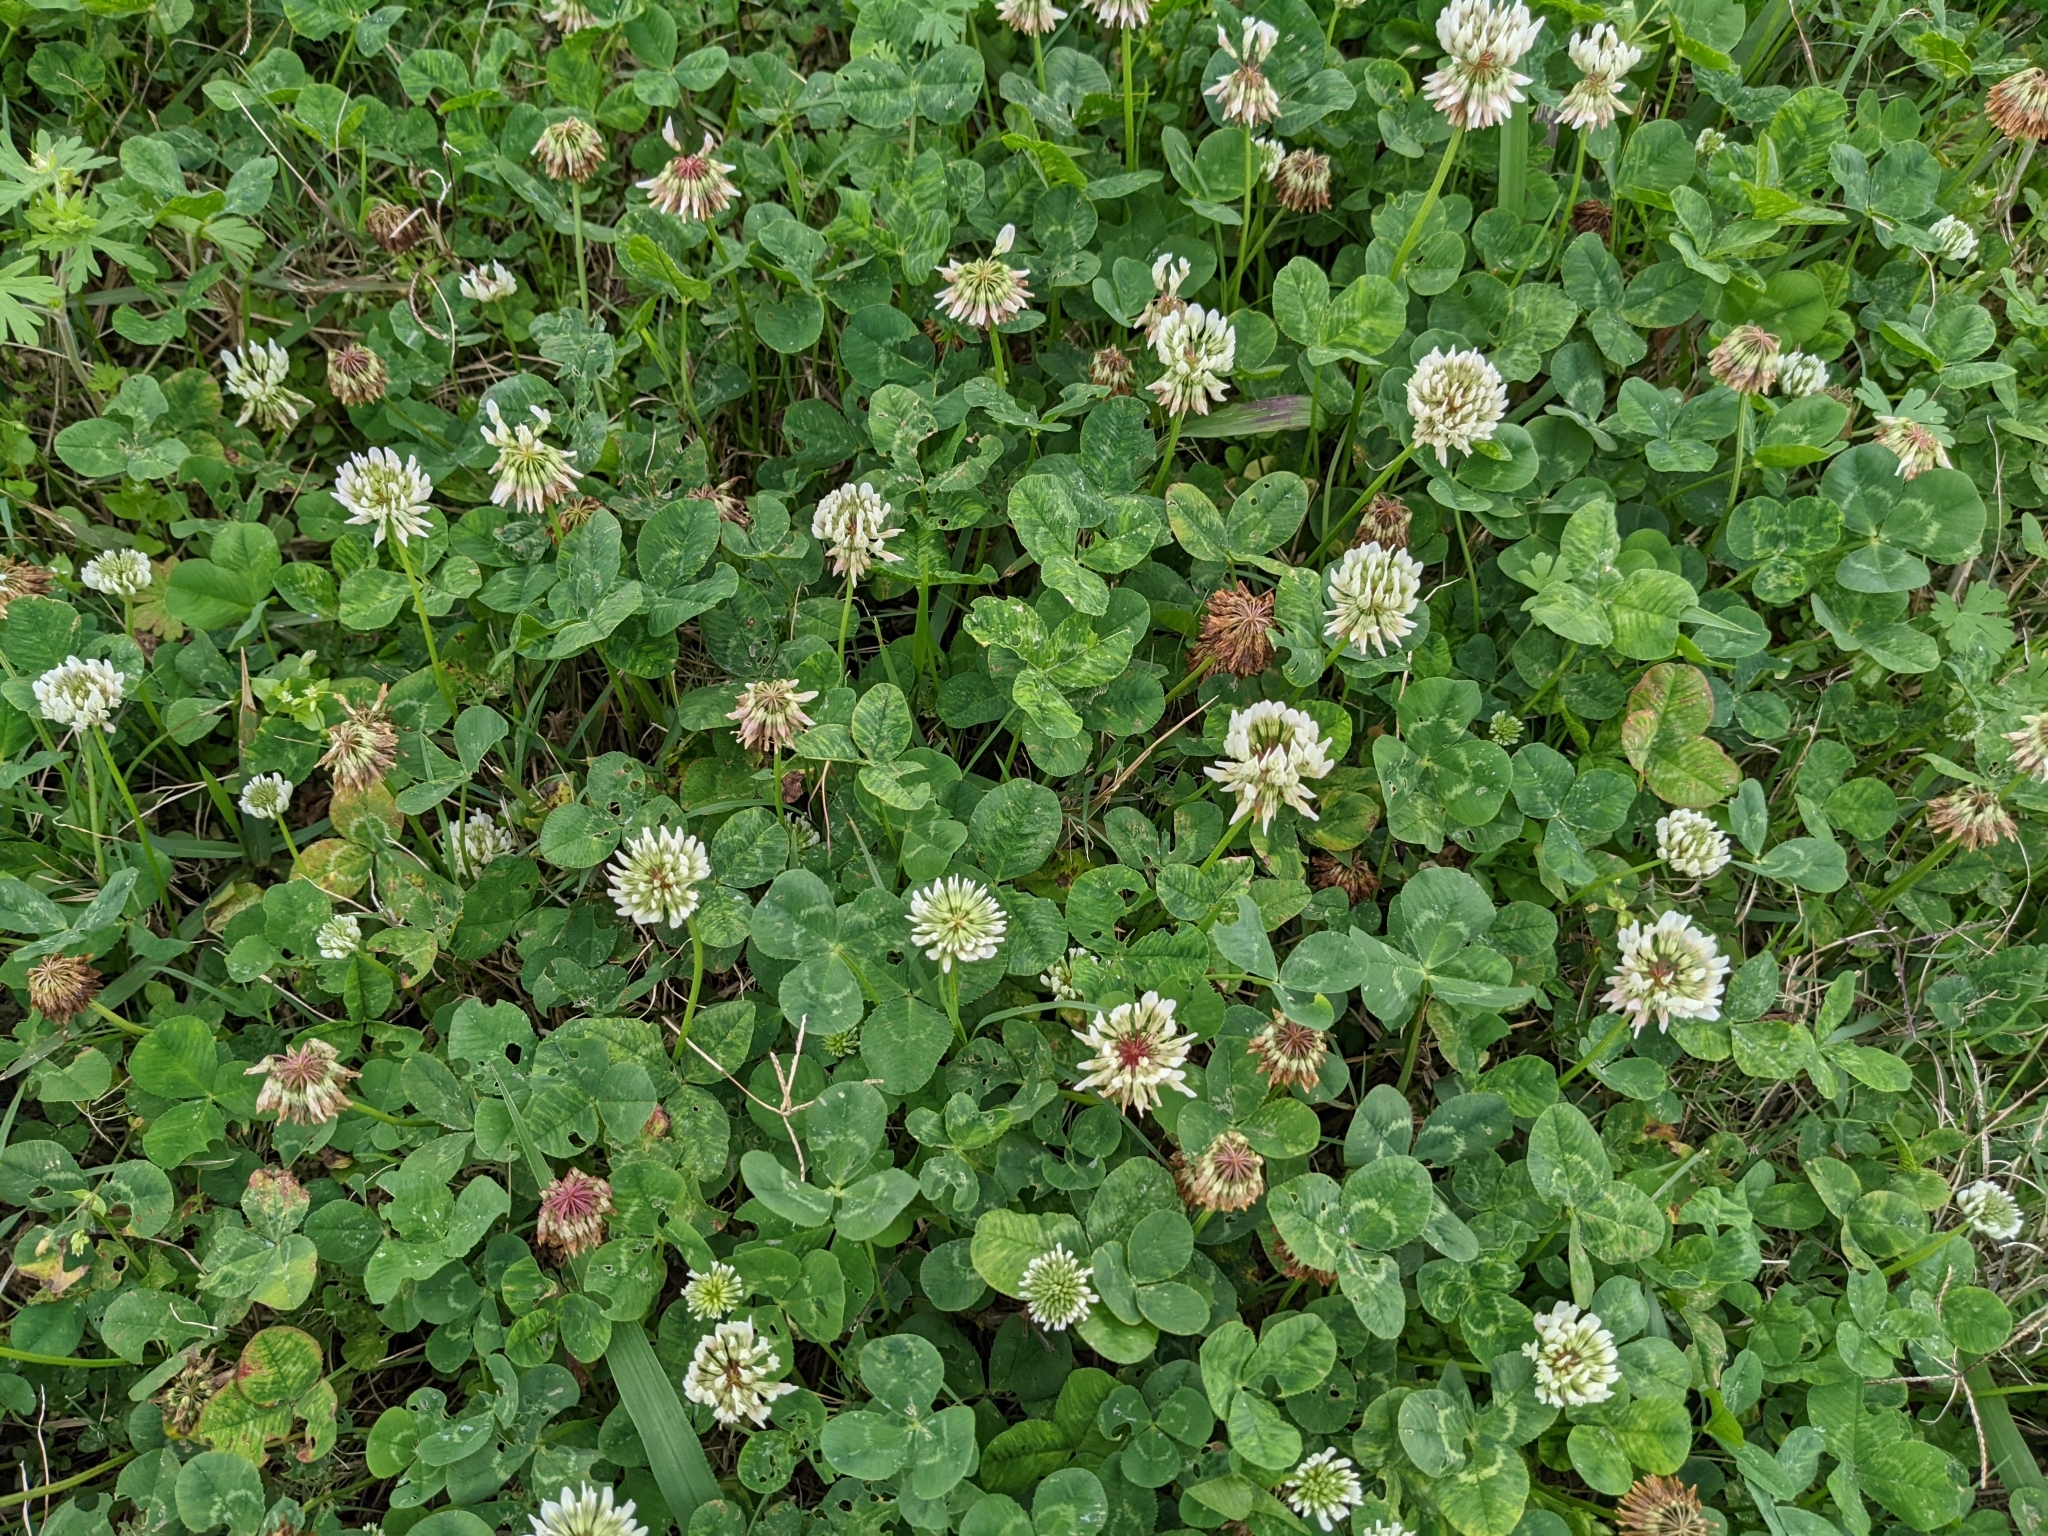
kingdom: Plantae
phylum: Tracheophyta
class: Magnoliopsida
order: Fabales
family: Fabaceae
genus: Trifolium
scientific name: Trifolium repens
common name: White clover
